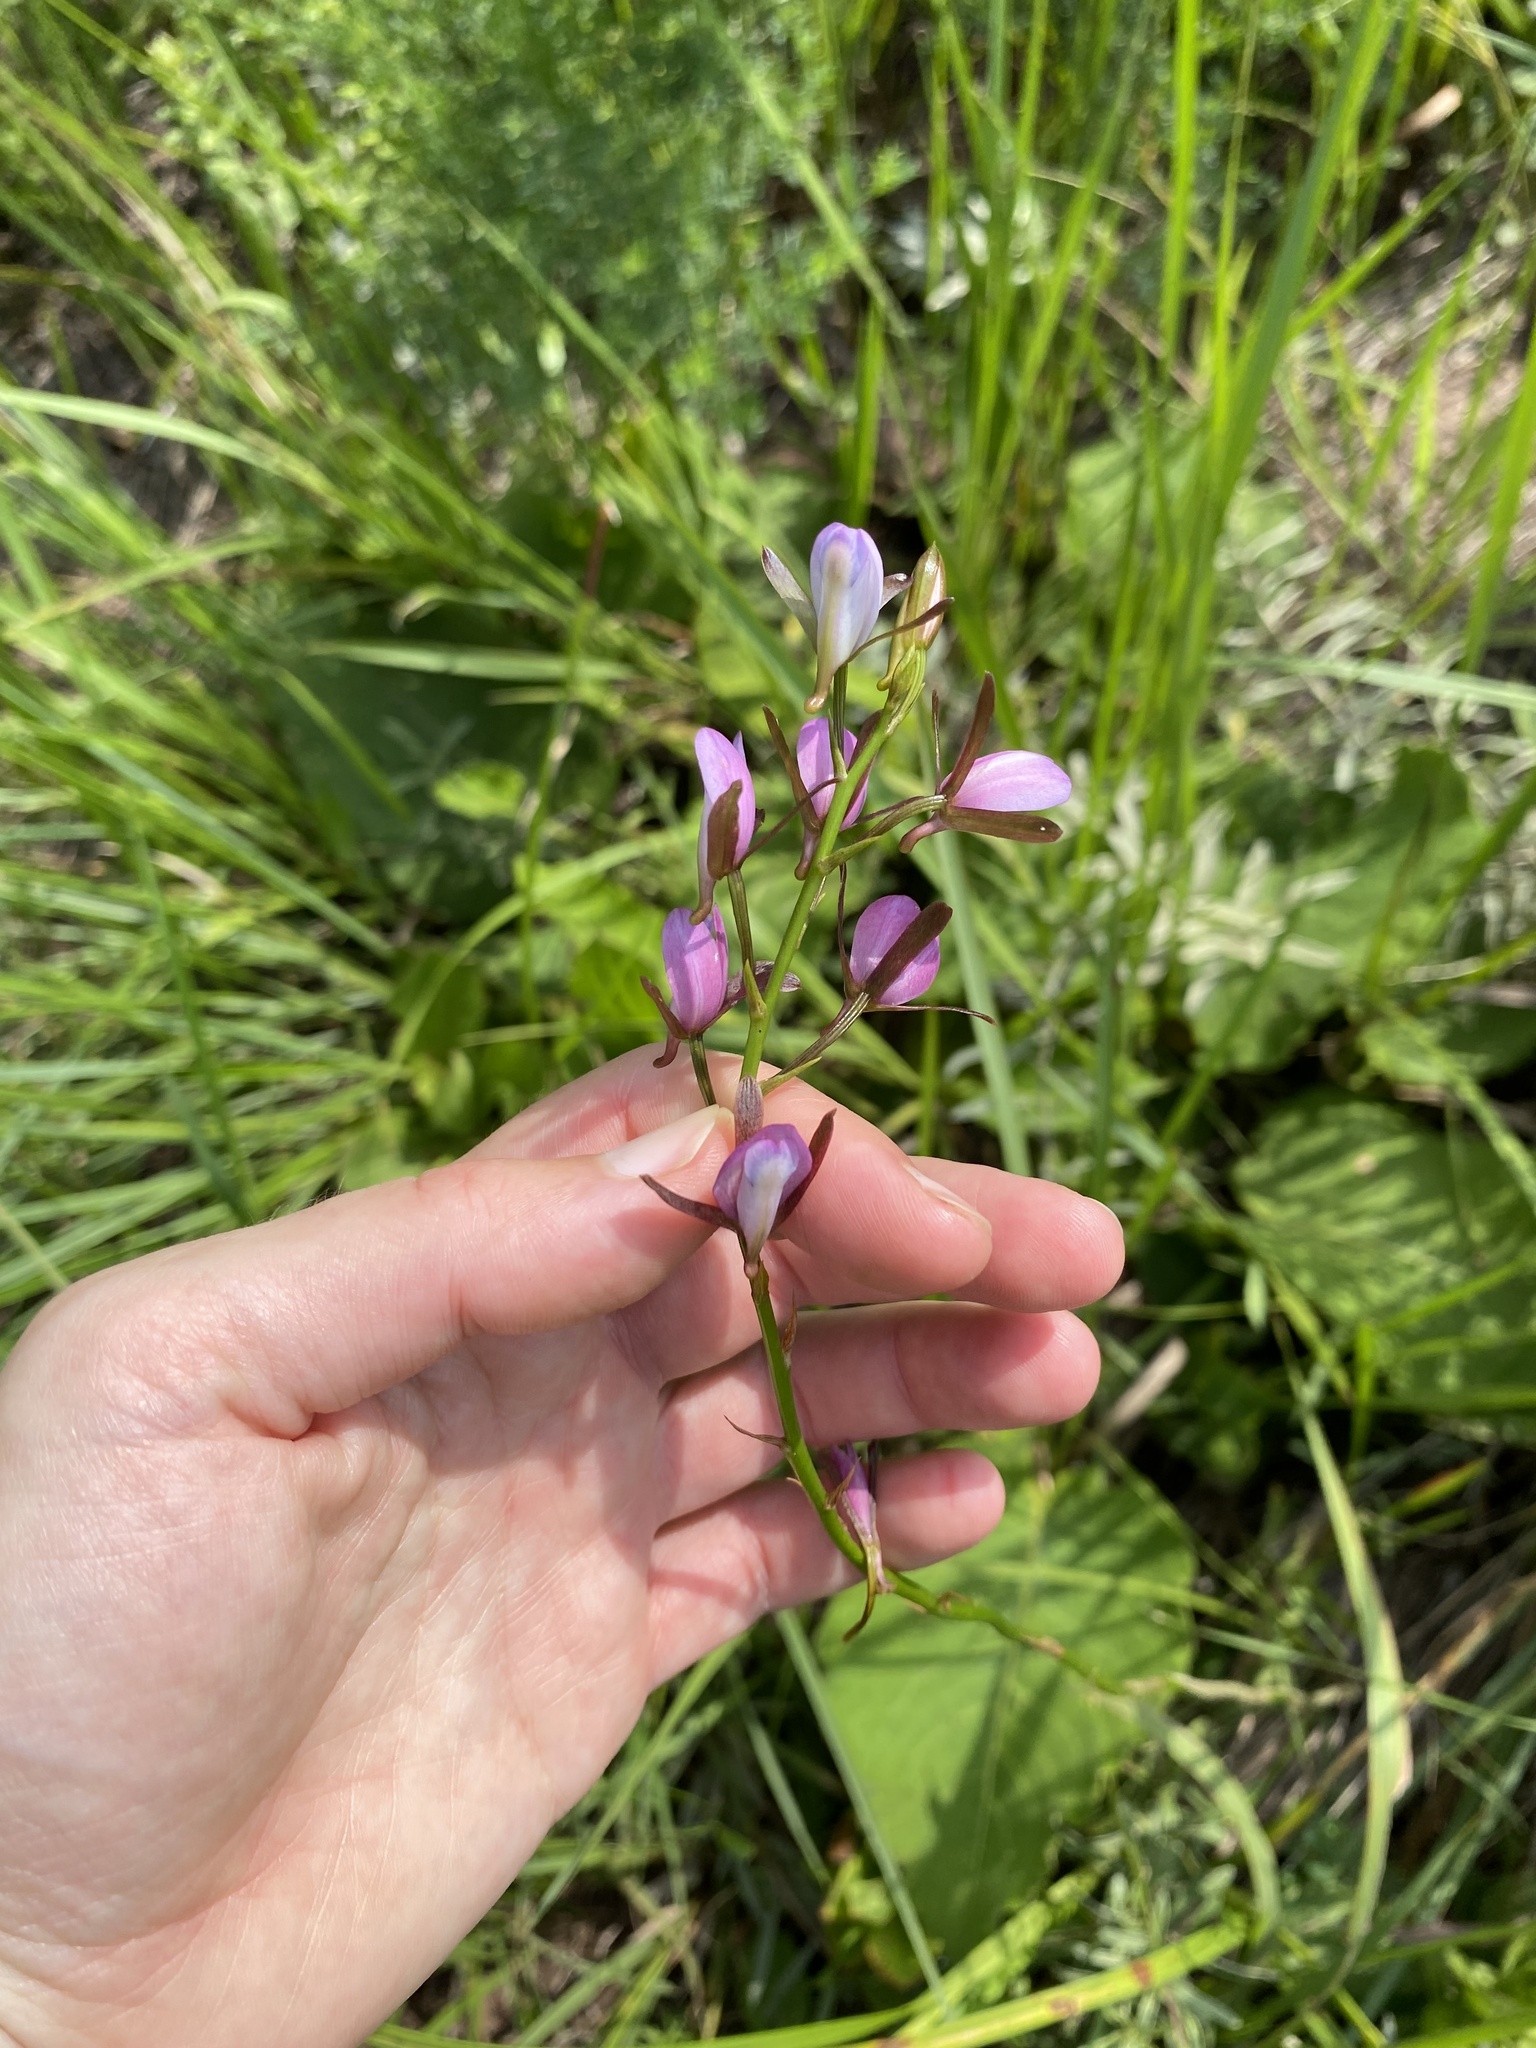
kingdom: Plantae
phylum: Tracheophyta
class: Liliopsida
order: Asparagales
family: Orchidaceae
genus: Eulophia
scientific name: Eulophia hians
